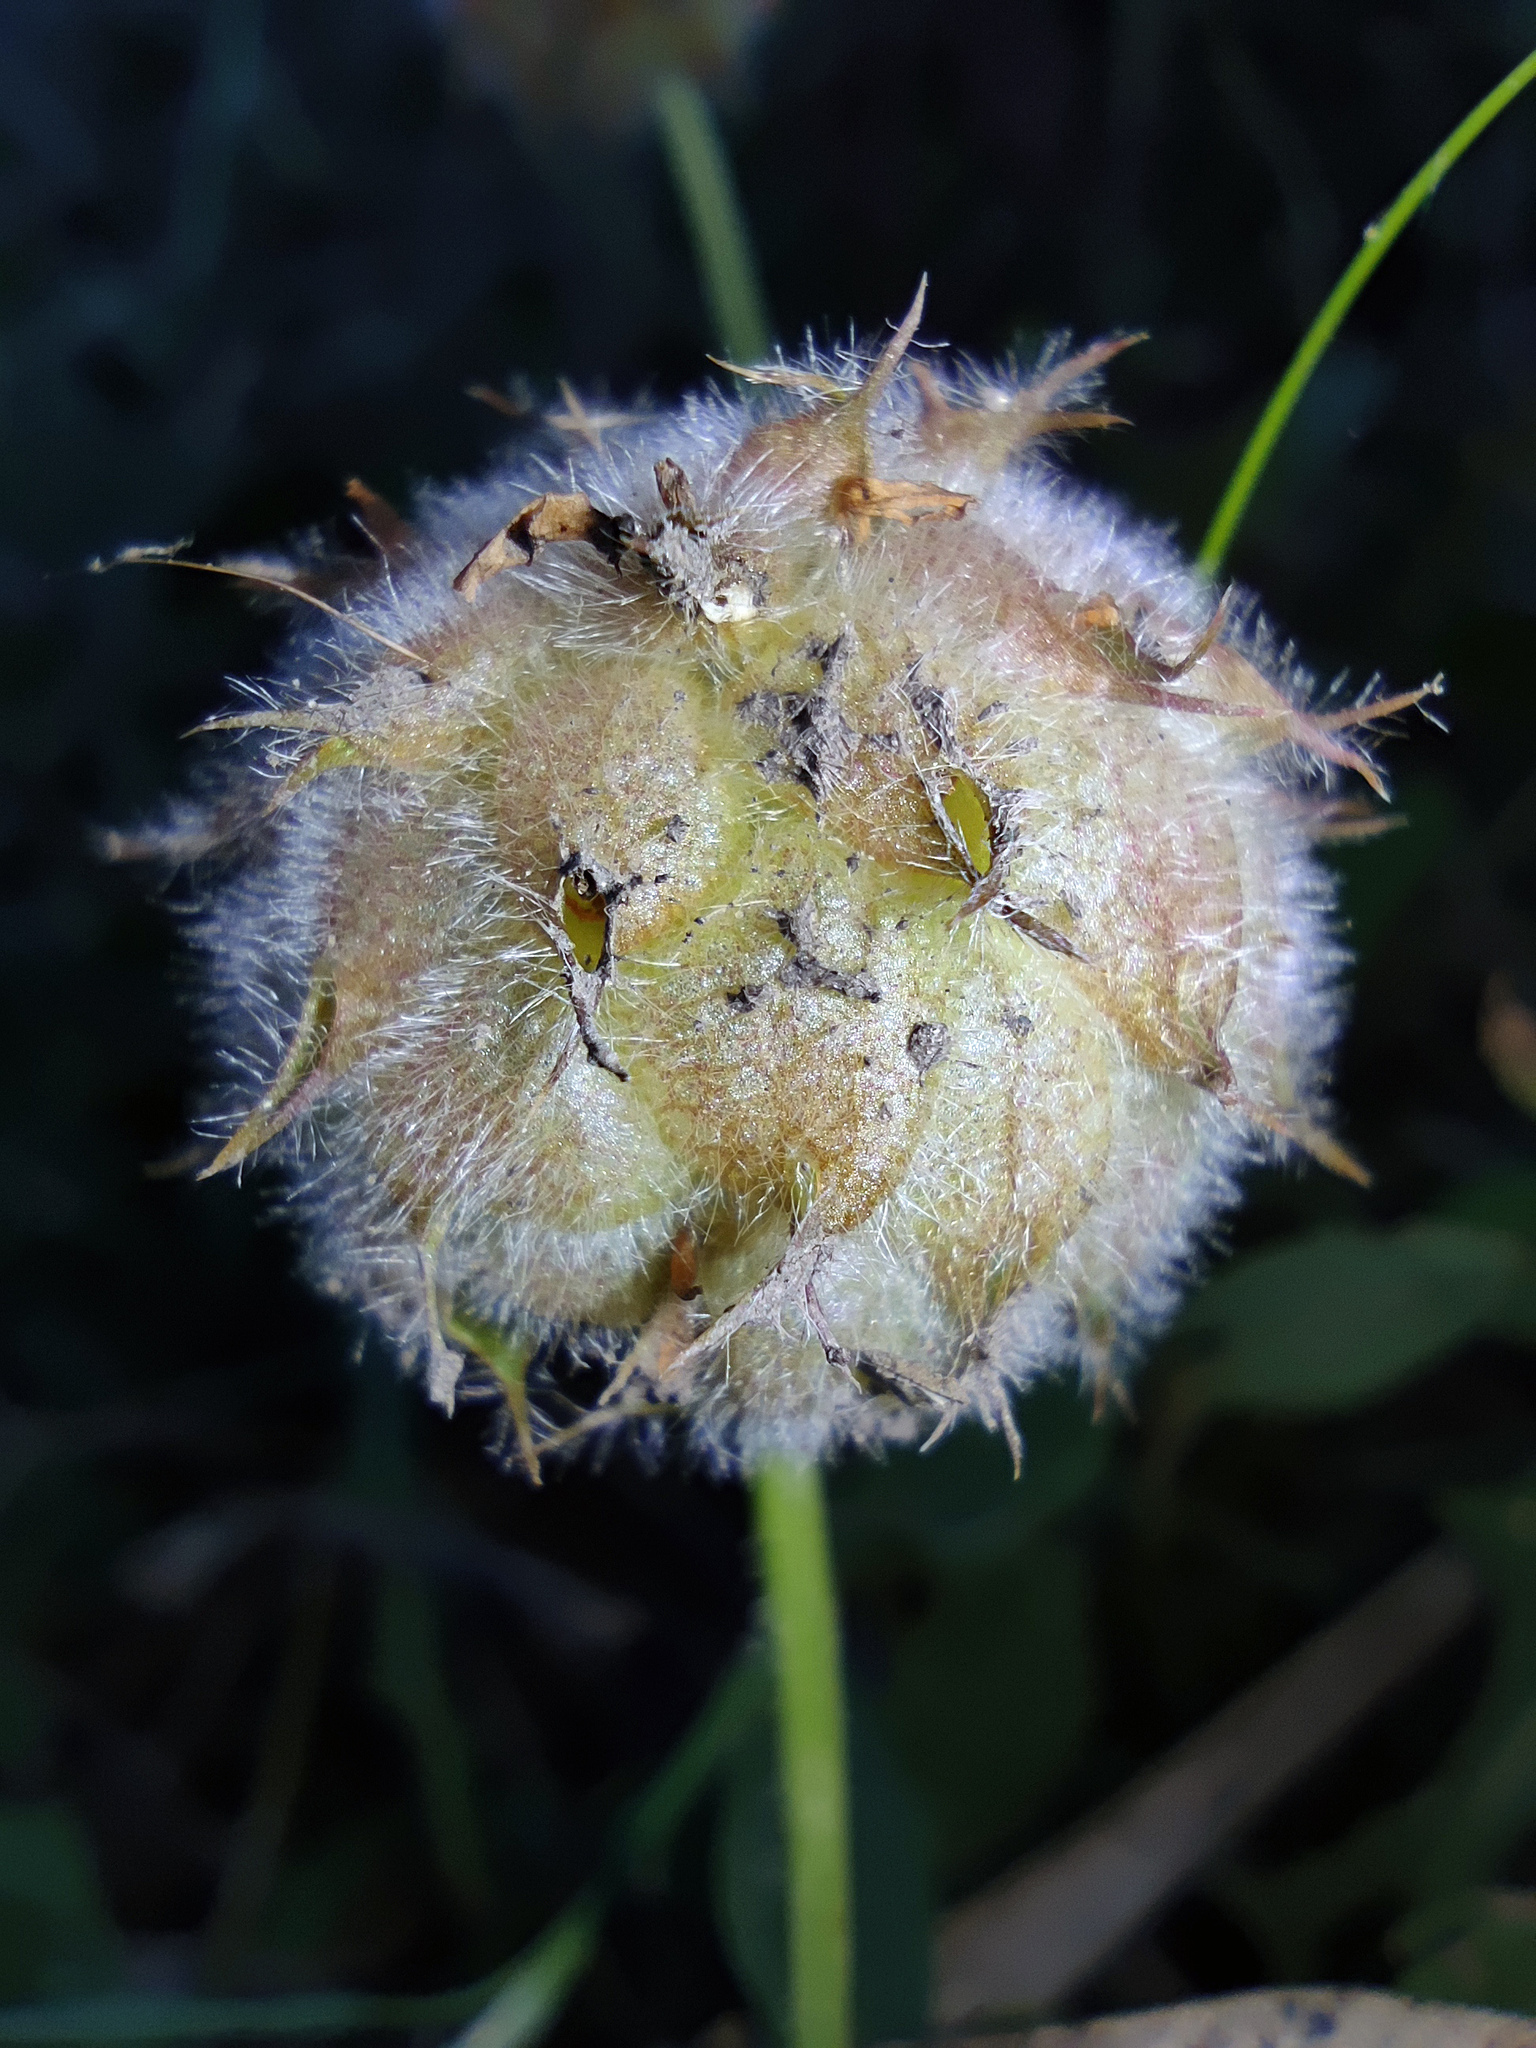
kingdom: Plantae
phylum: Tracheophyta
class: Magnoliopsida
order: Fabales
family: Fabaceae
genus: Trifolium
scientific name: Trifolium fragiferum
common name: Strawberry clover
